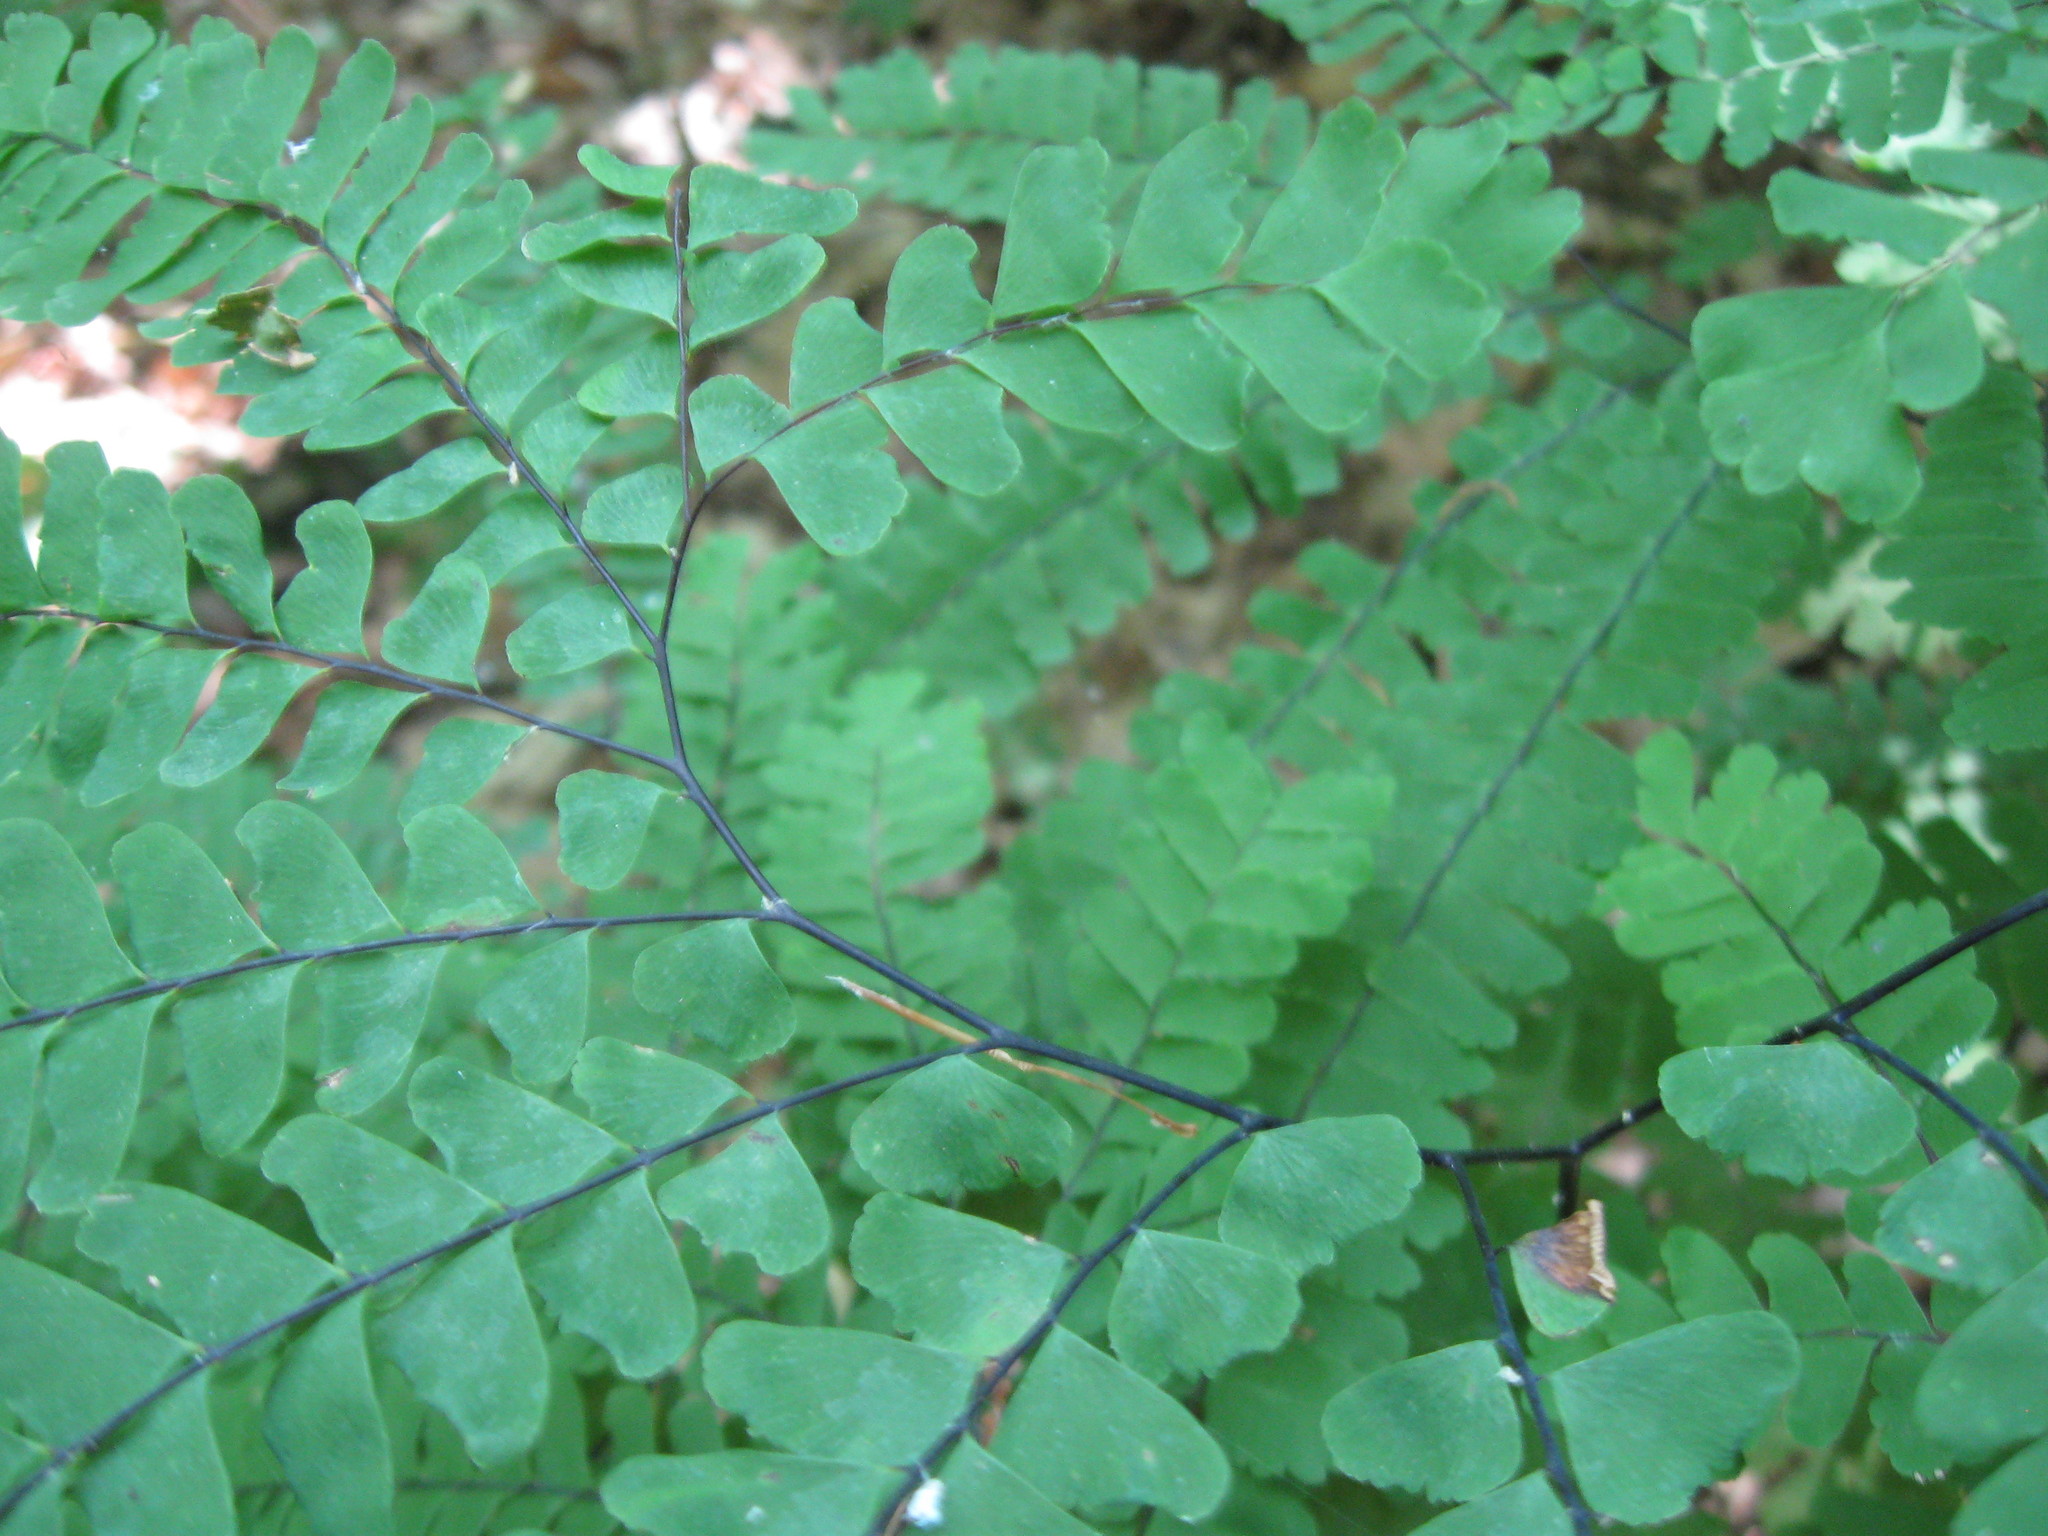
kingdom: Plantae
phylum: Tracheophyta
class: Polypodiopsida
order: Polypodiales
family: Pteridaceae
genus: Adiantum
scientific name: Adiantum pedatum
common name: Five-finger fern
